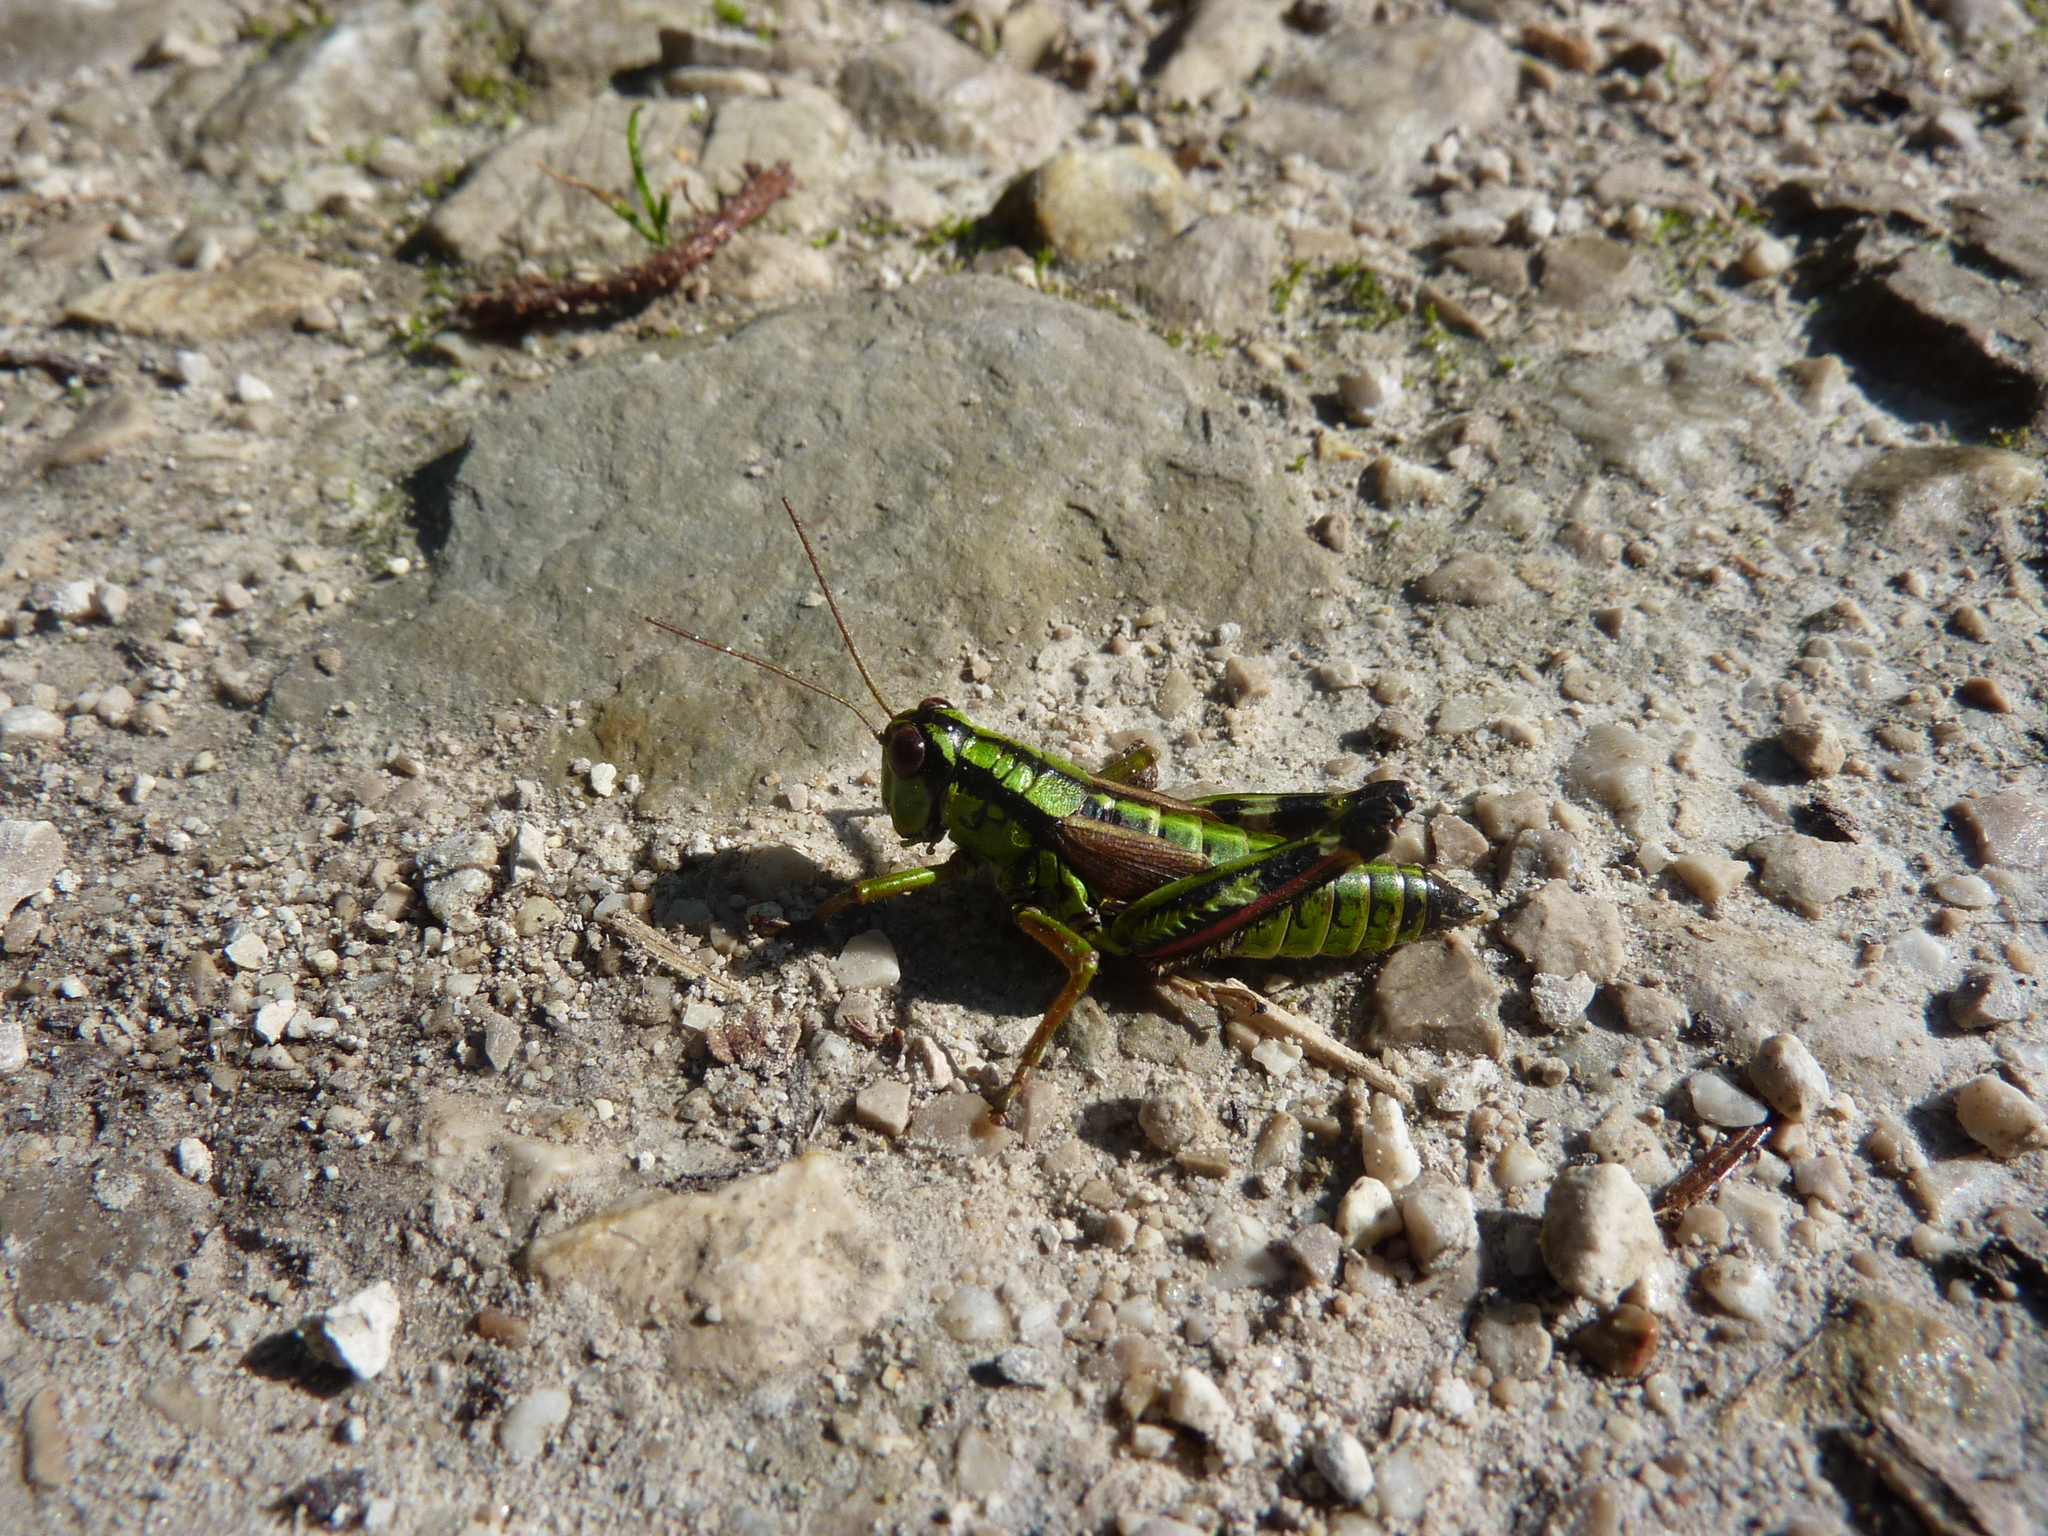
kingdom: Animalia
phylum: Arthropoda
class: Insecta
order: Orthoptera
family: Acrididae
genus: Miramella
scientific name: Miramella alpina
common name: Green mountain grasshopper
